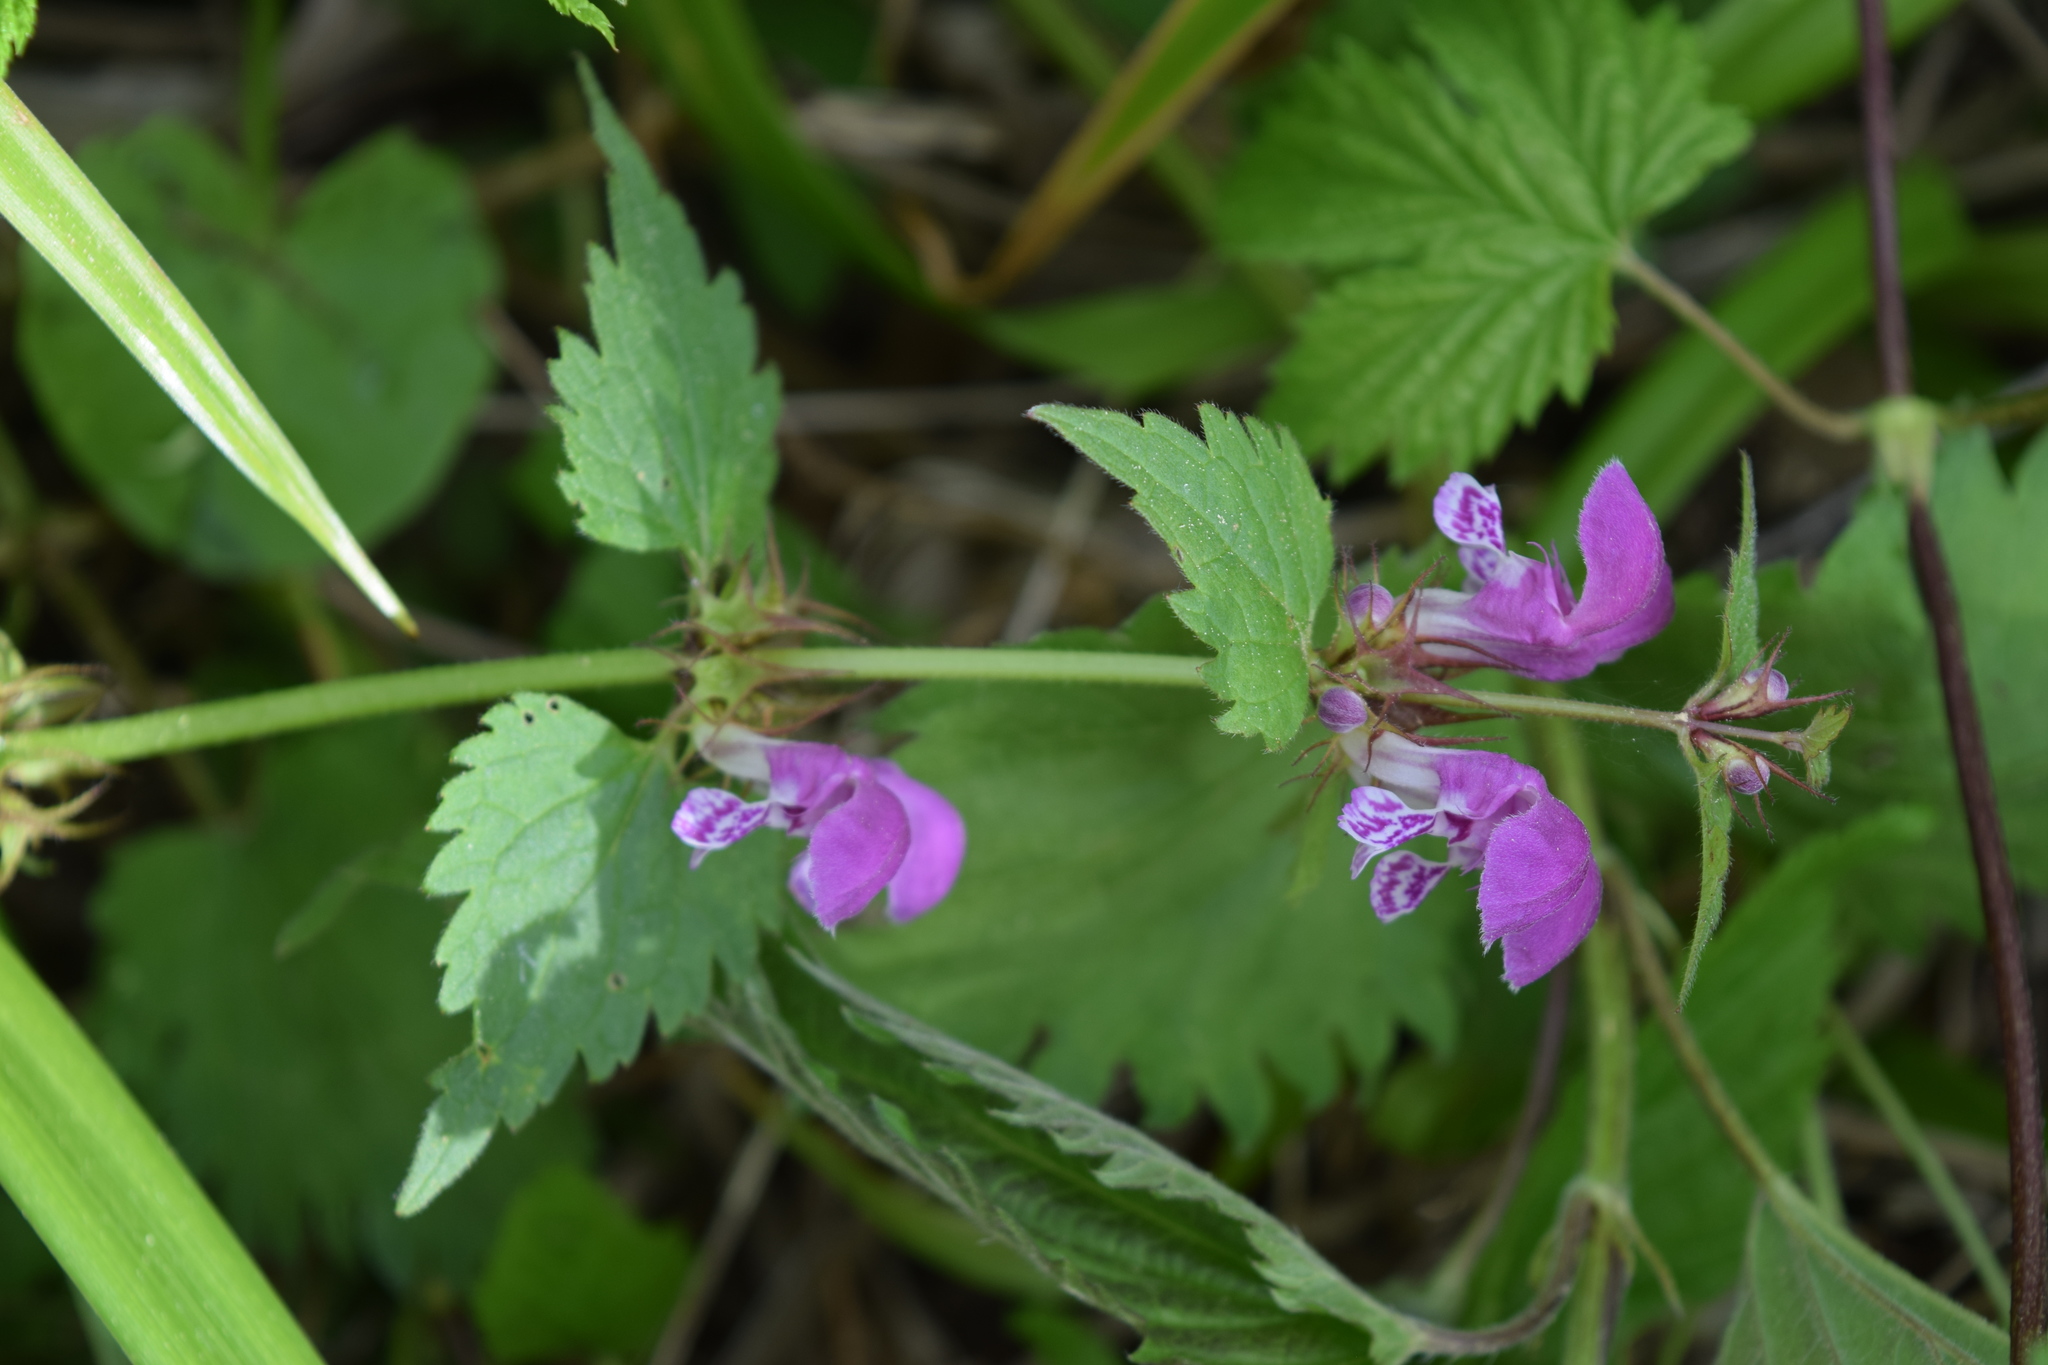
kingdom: Plantae
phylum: Tracheophyta
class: Magnoliopsida
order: Lamiales
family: Lamiaceae
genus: Lamium
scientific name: Lamium maculatum
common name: Spotted dead-nettle
